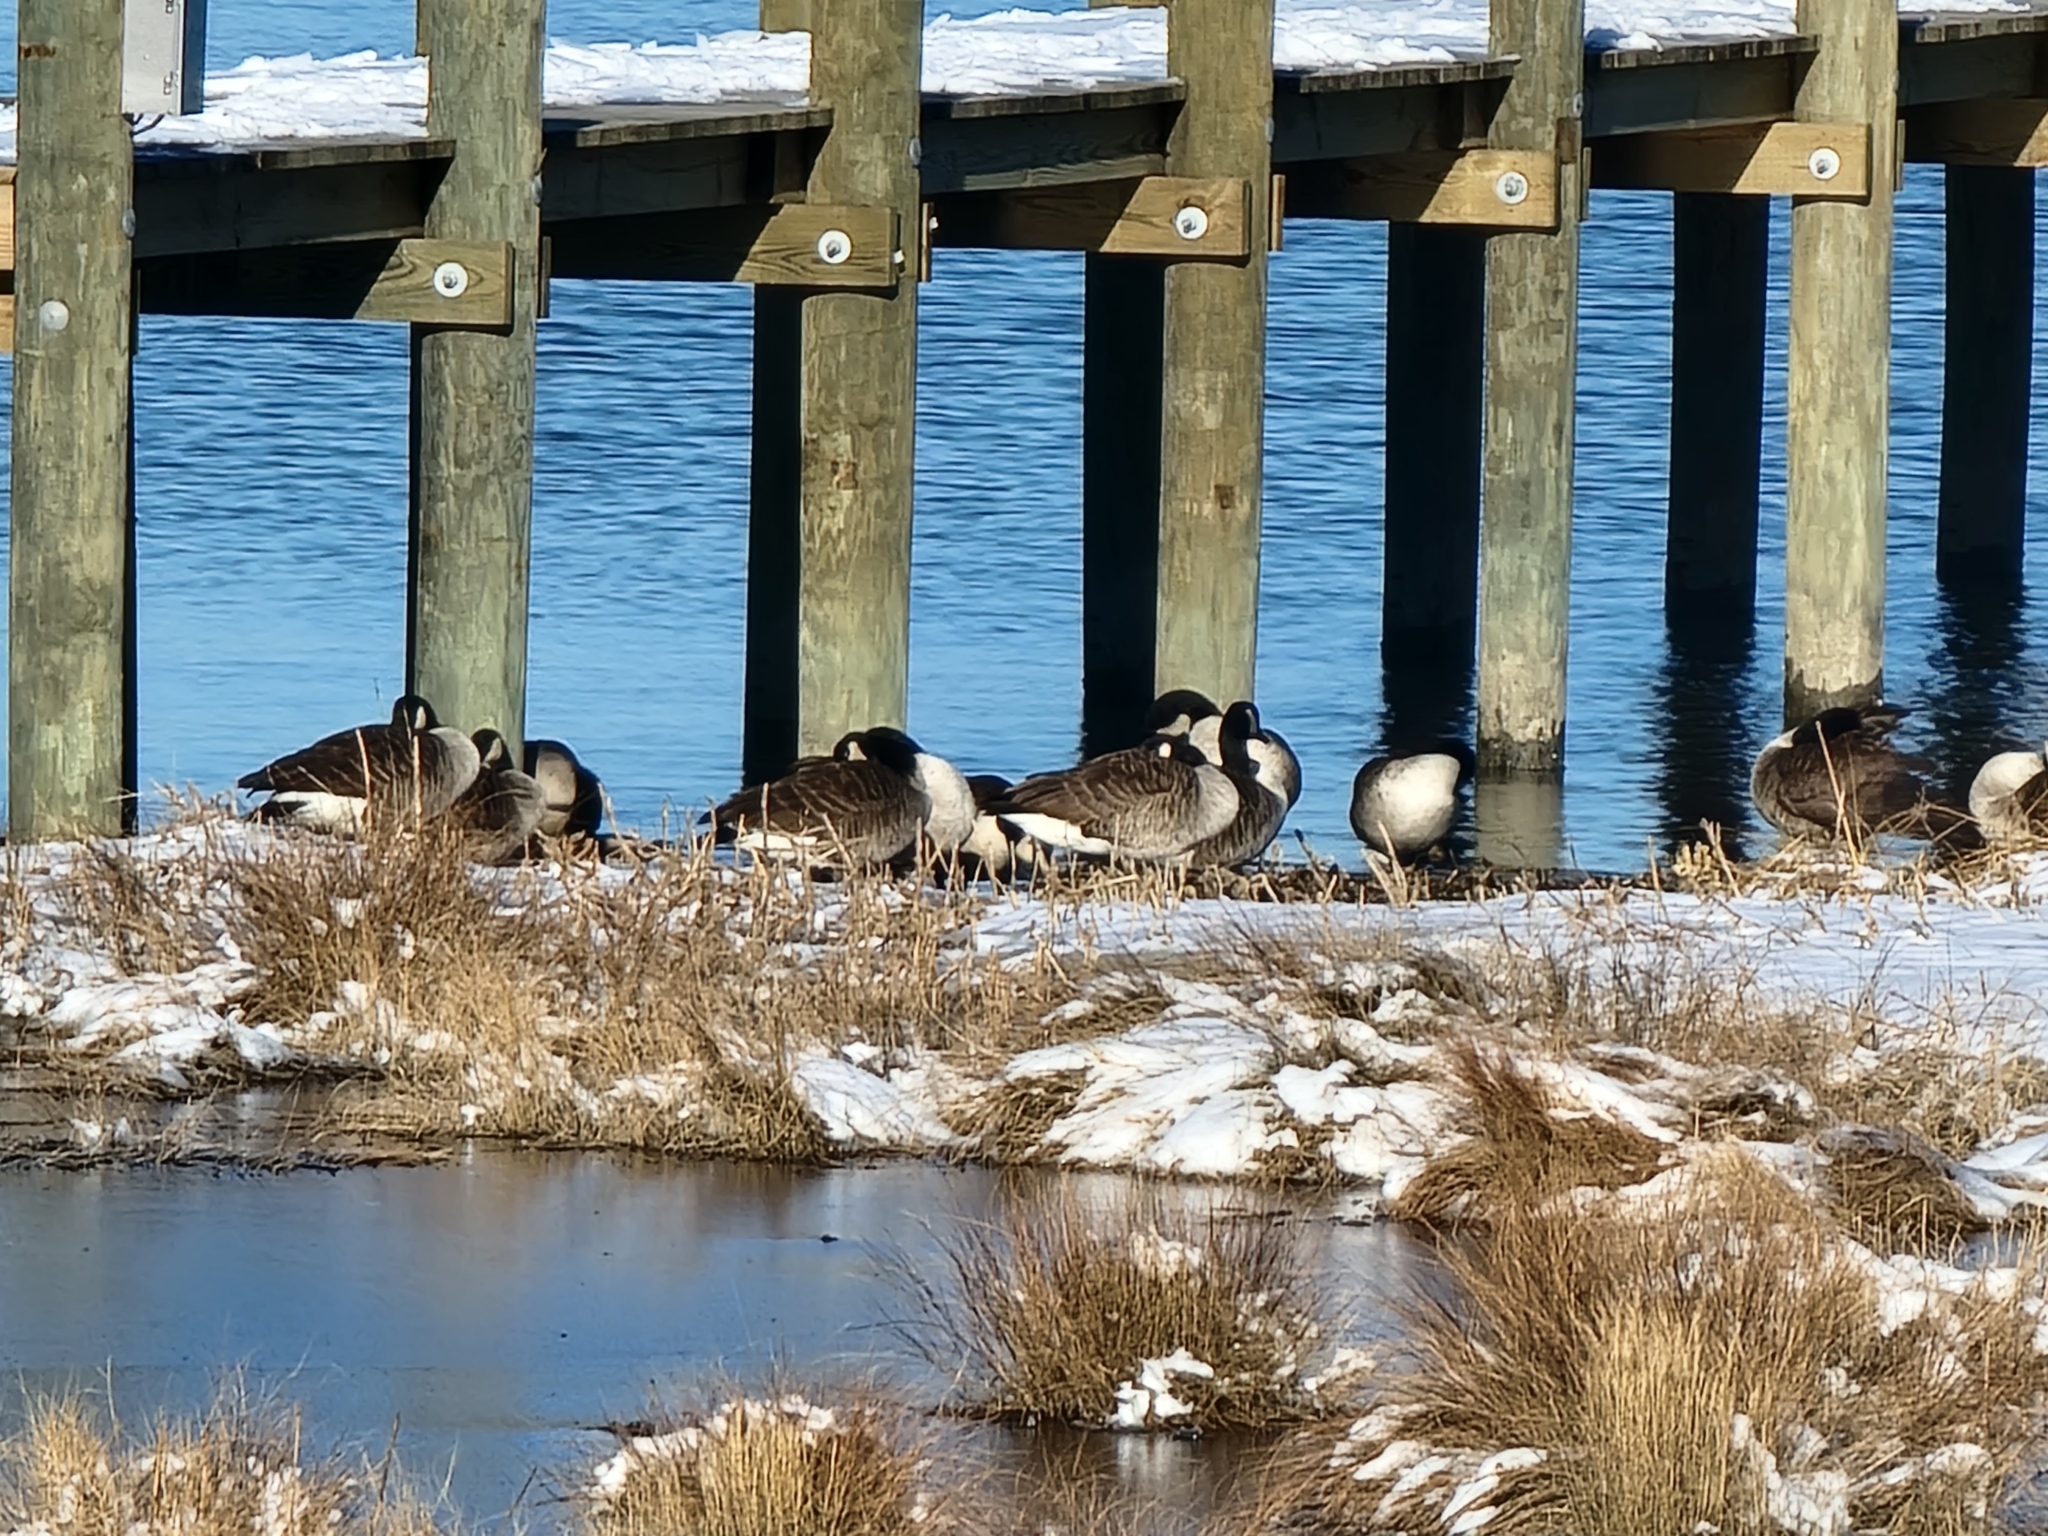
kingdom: Animalia
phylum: Chordata
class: Aves
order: Anseriformes
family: Anatidae
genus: Branta
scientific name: Branta canadensis
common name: Canada goose
